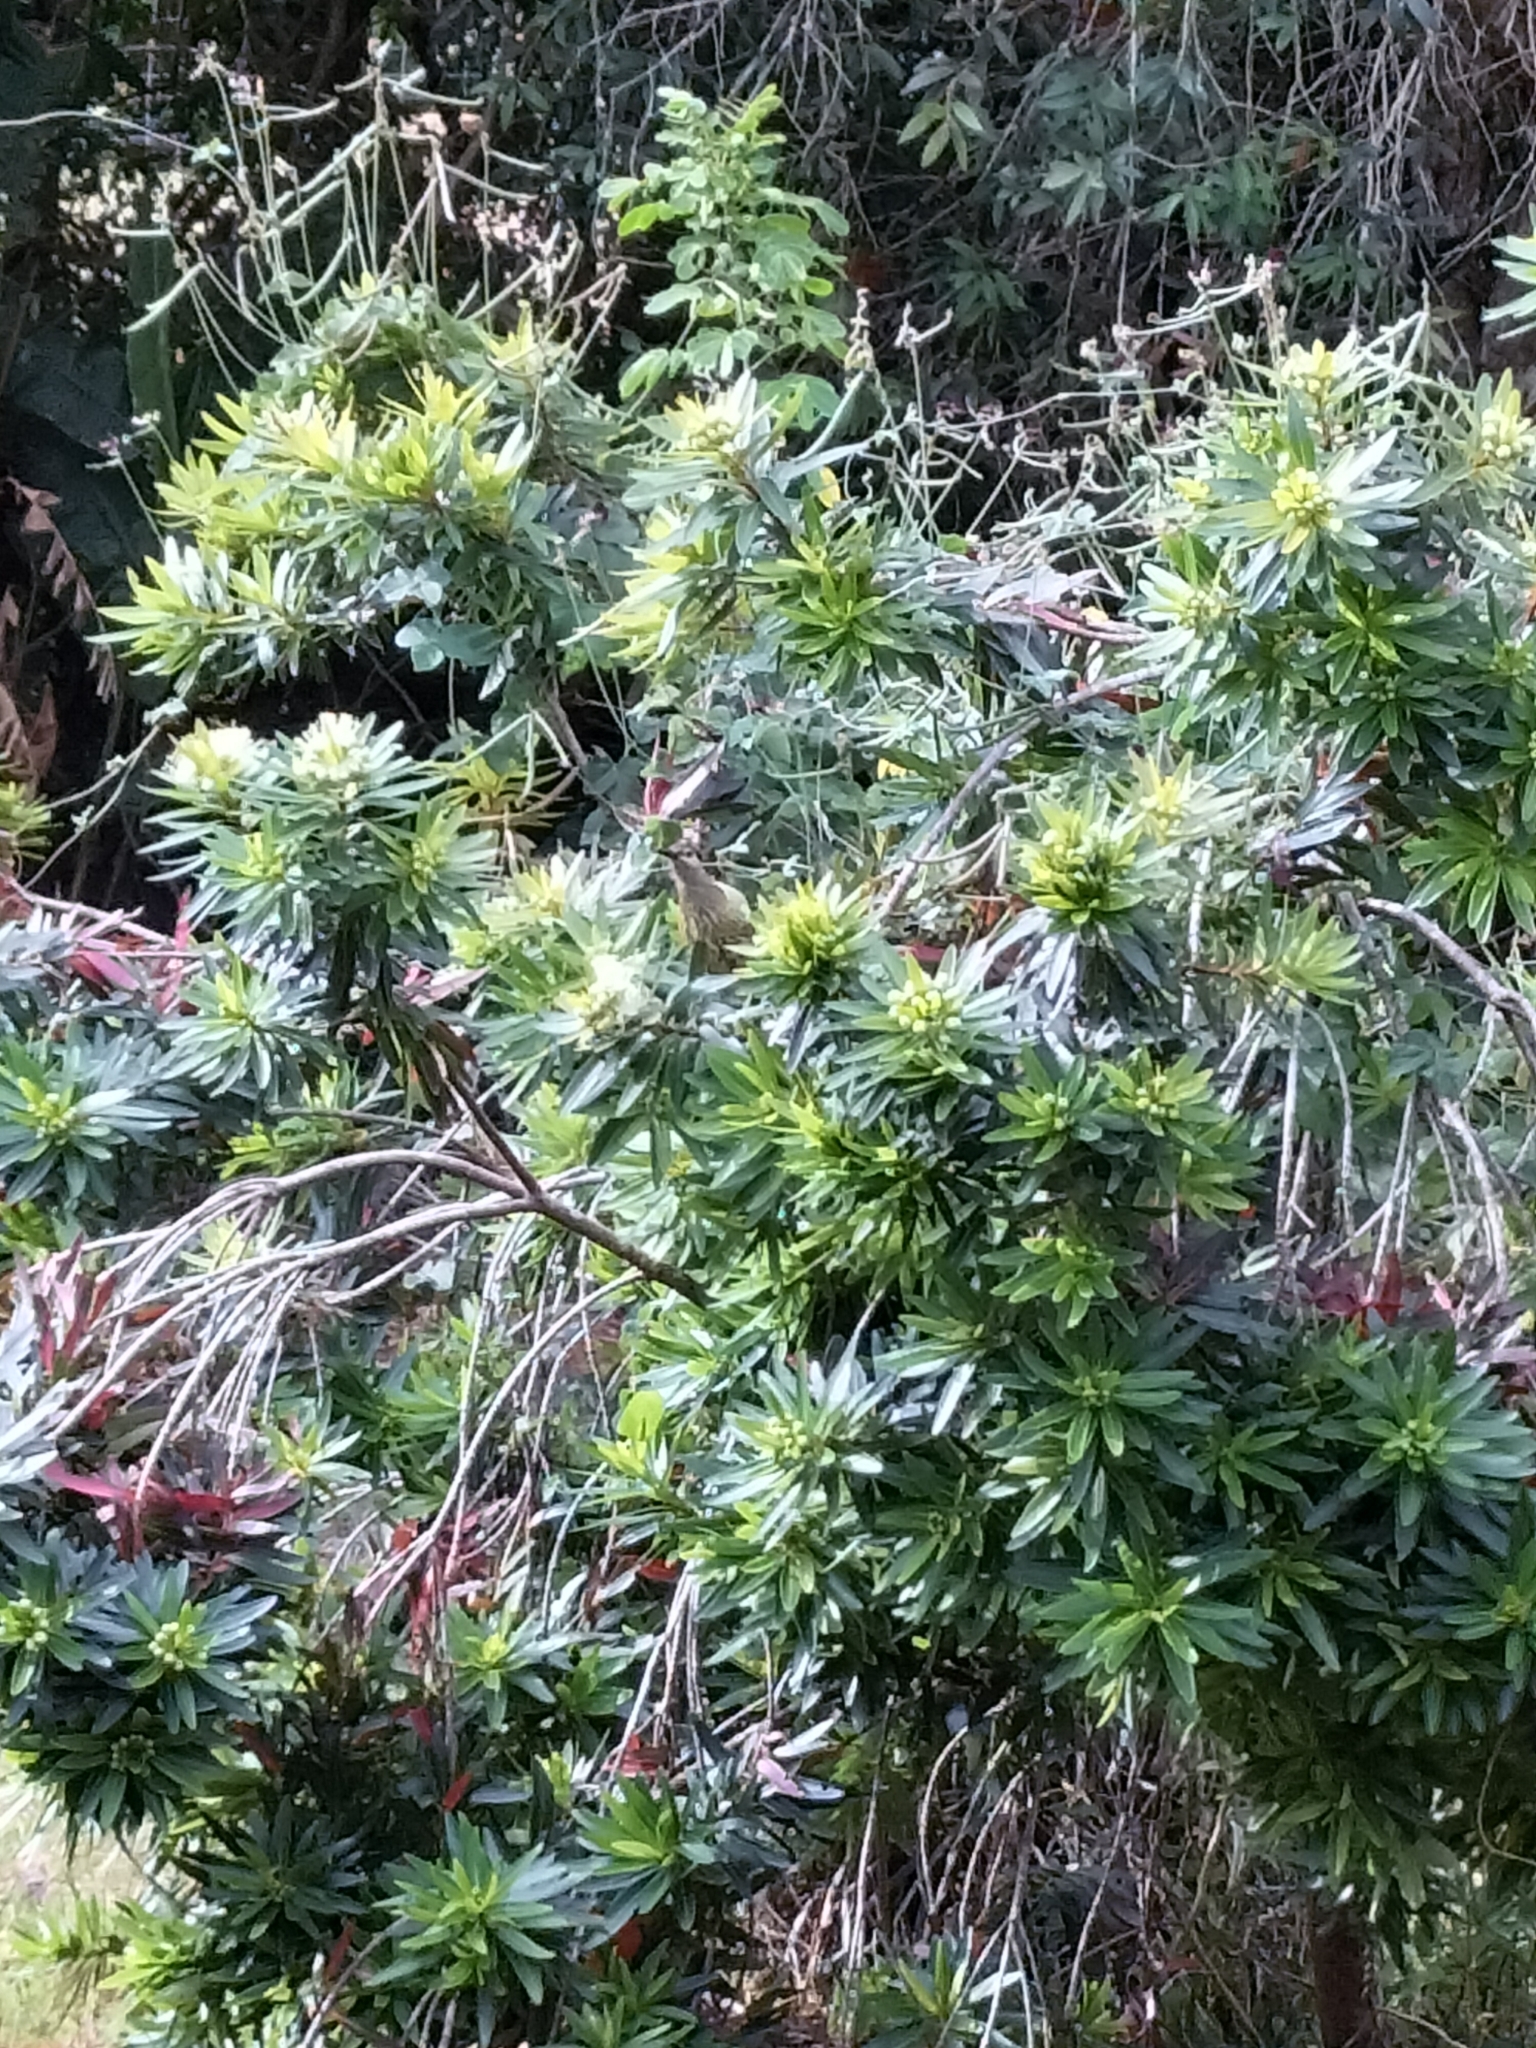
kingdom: Animalia
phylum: Chordata
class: Aves
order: Passeriformes
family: Meliphagidae
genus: Xanthotis
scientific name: Xanthotis macleayanus
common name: Macleay's honeyeater
